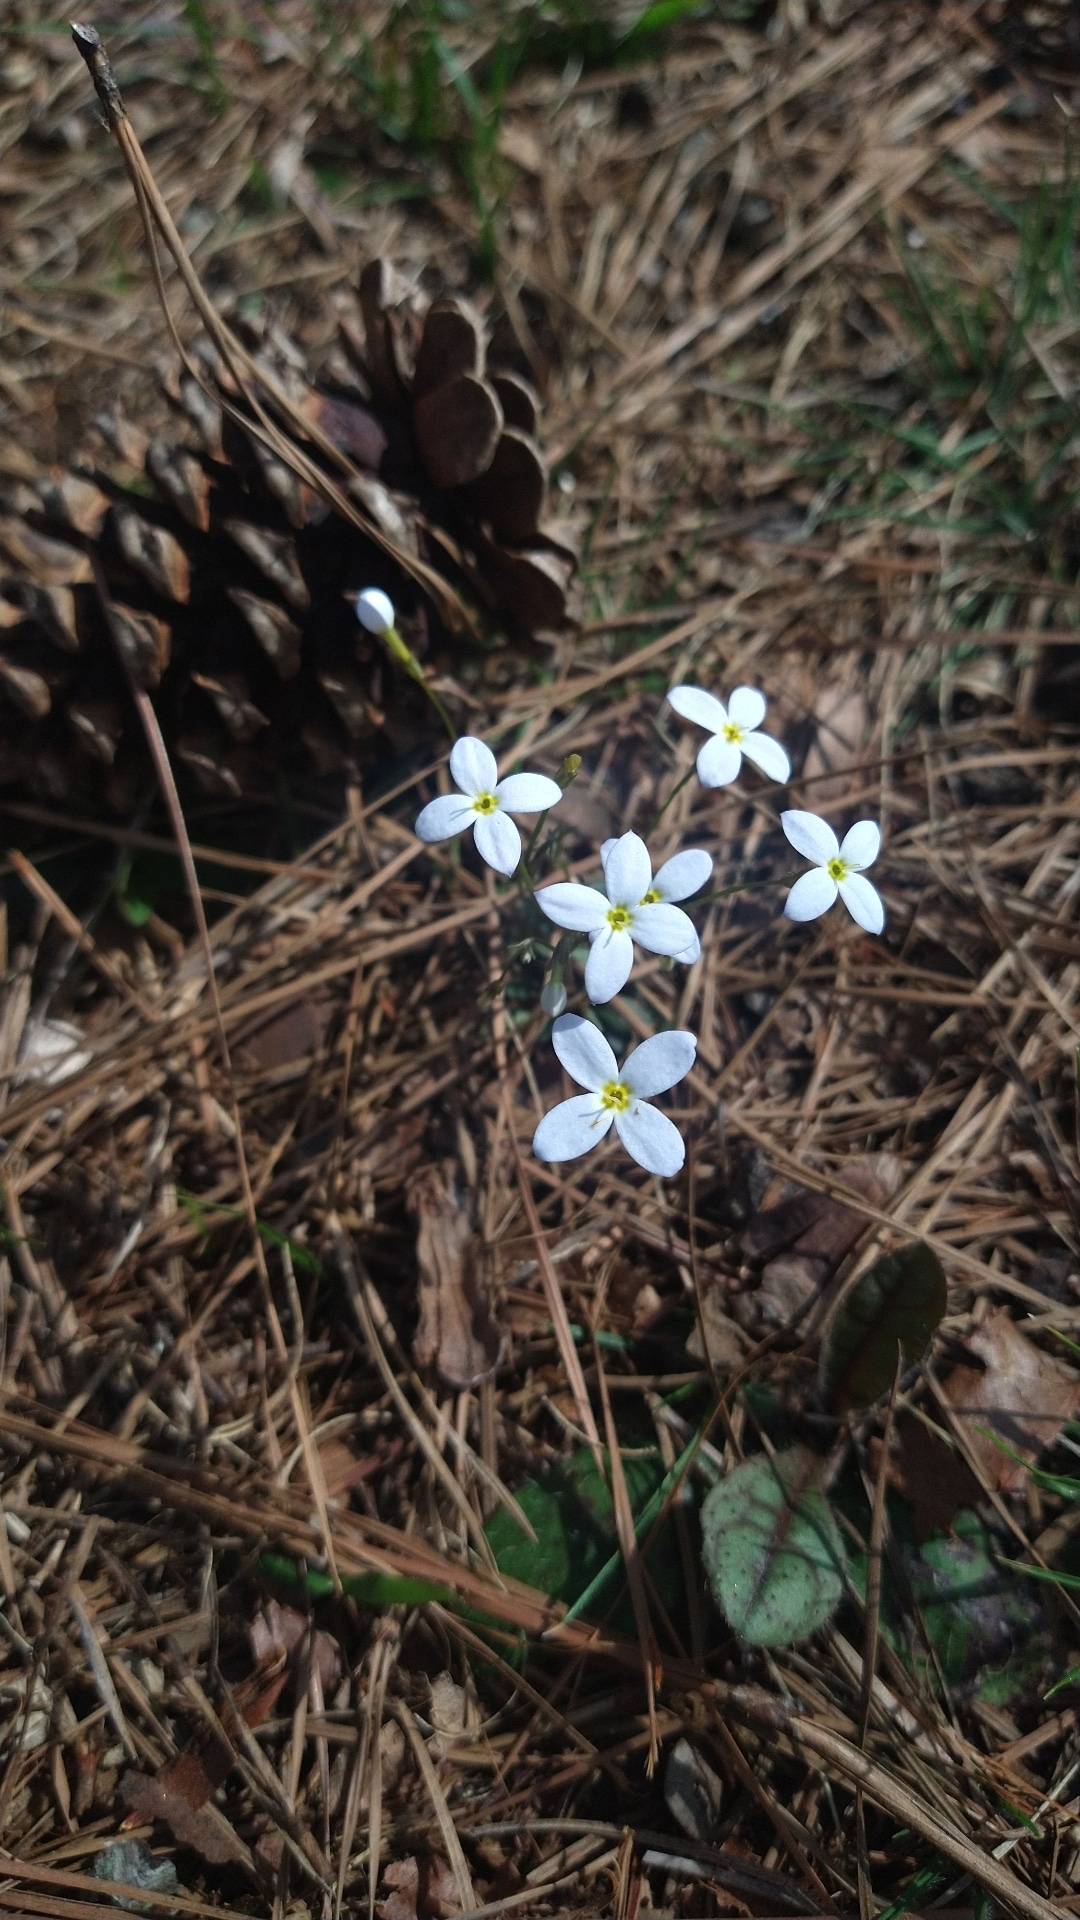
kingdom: Plantae
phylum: Tracheophyta
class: Magnoliopsida
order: Gentianales
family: Rubiaceae
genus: Houstonia
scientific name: Houstonia caerulea
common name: Bluets
